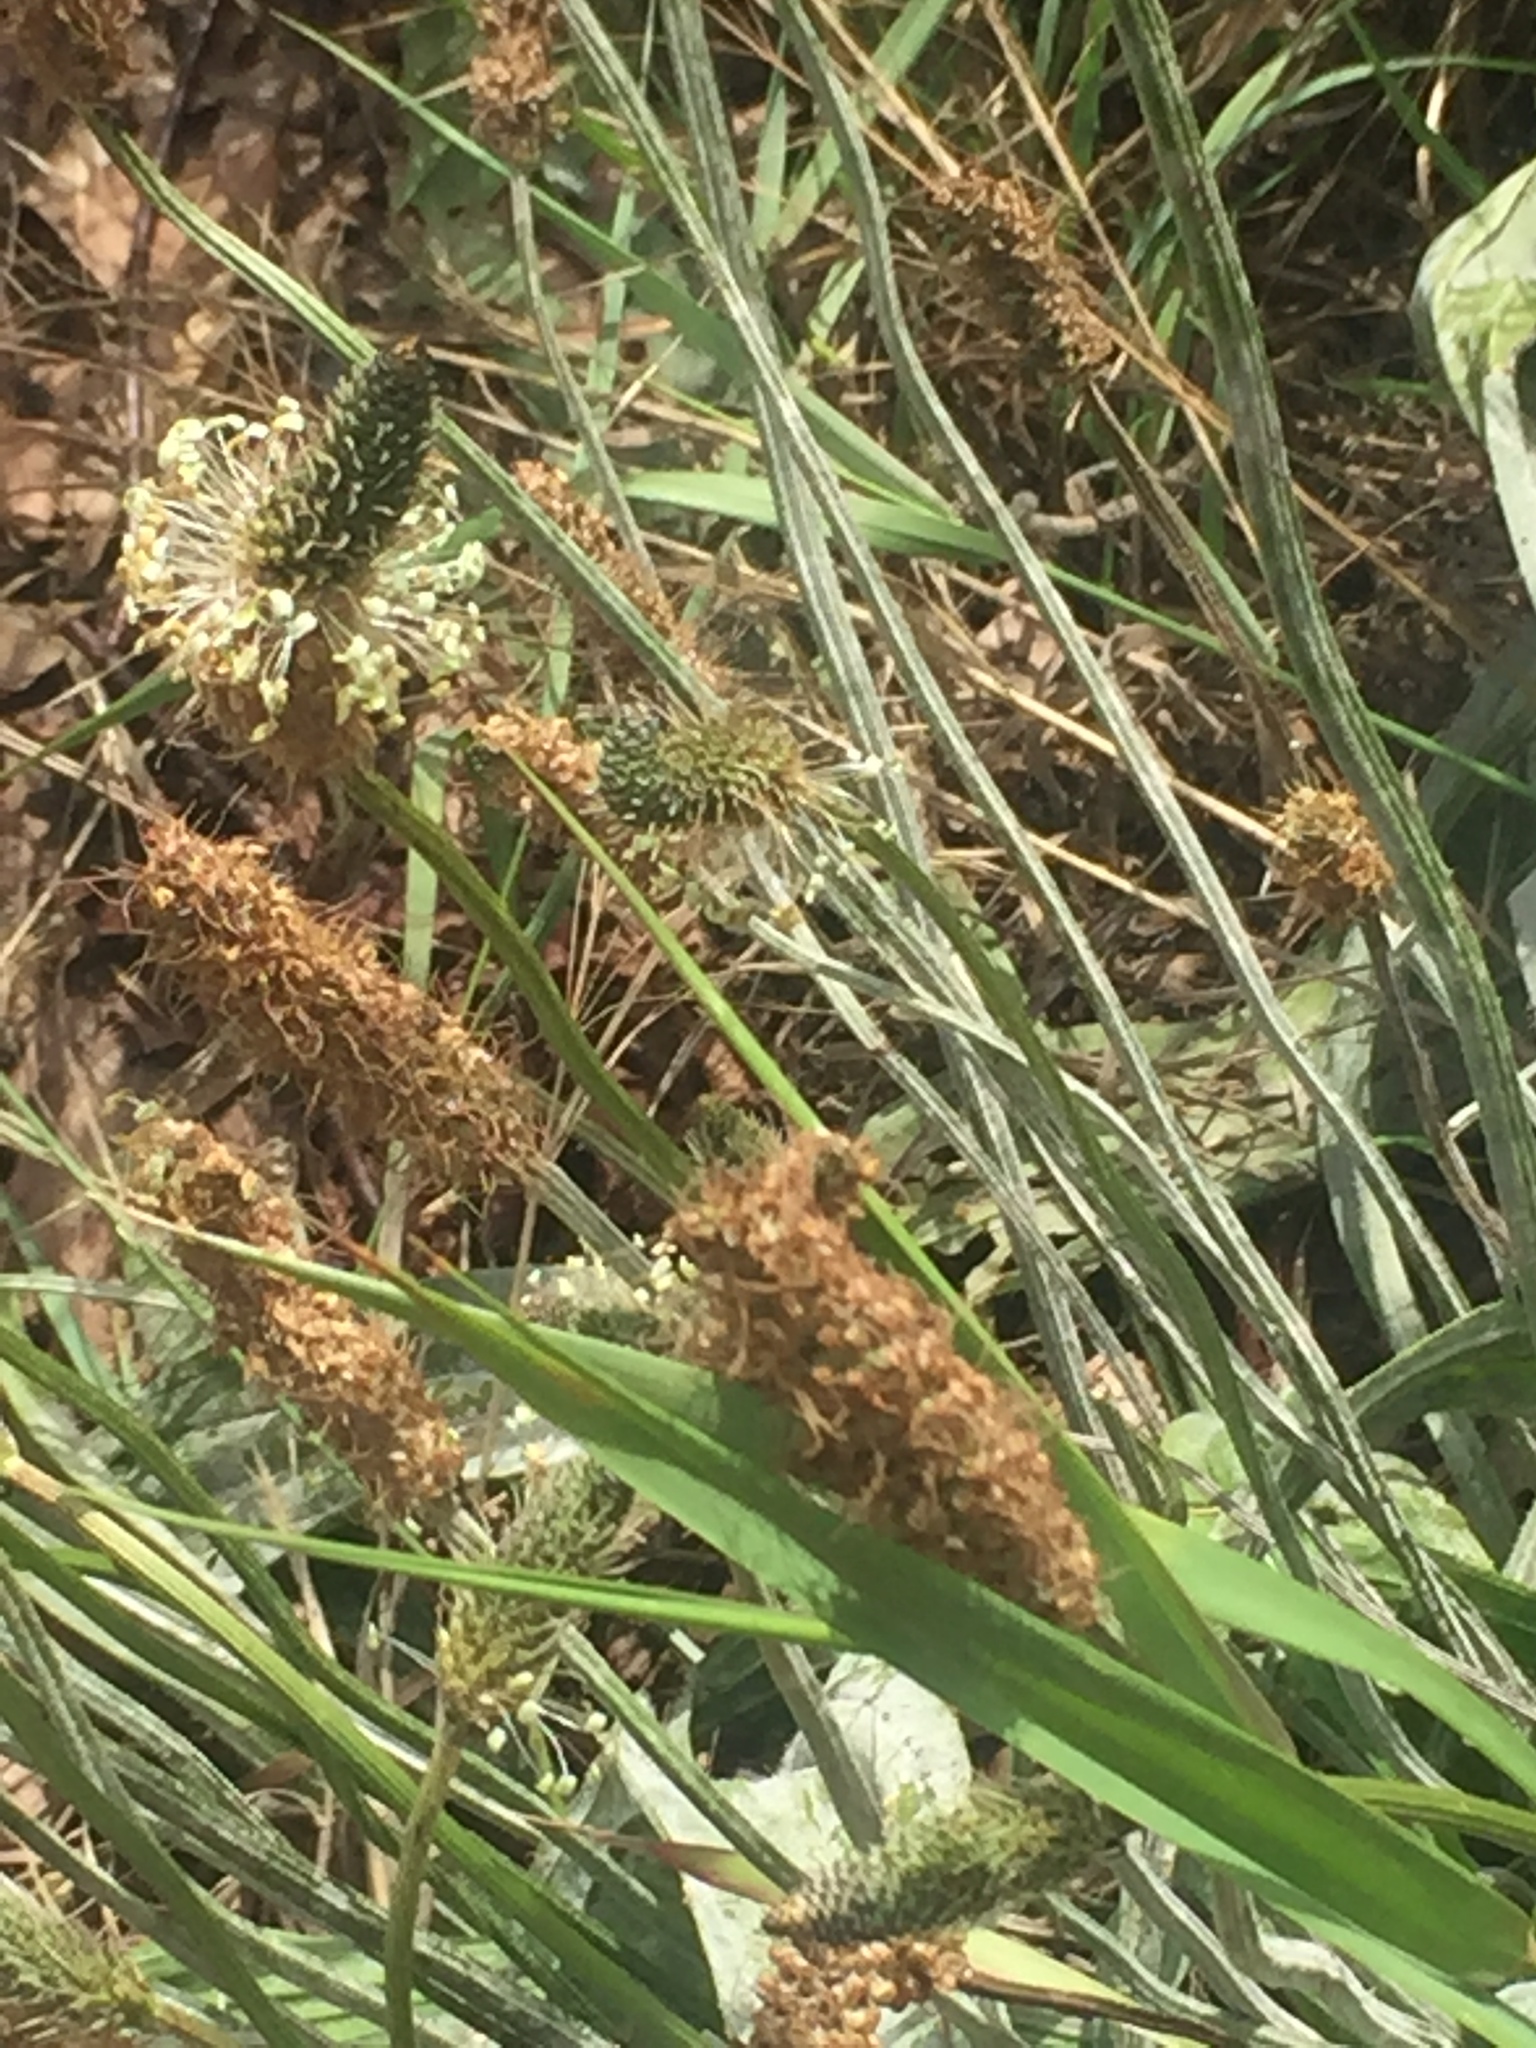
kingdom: Plantae
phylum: Tracheophyta
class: Magnoliopsida
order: Lamiales
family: Plantaginaceae
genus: Plantago
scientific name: Plantago lanceolata
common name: Ribwort plantain
